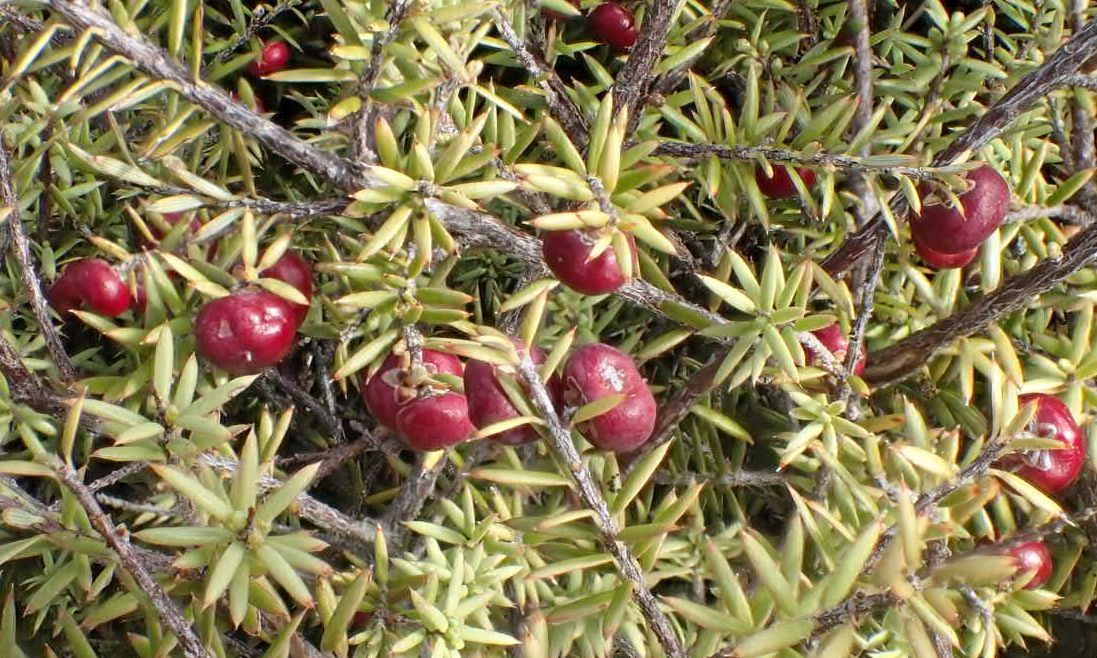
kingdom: Plantae
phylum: Tracheophyta
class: Magnoliopsida
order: Ericales
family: Ericaceae
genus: Leptecophylla
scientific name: Leptecophylla juniperina
